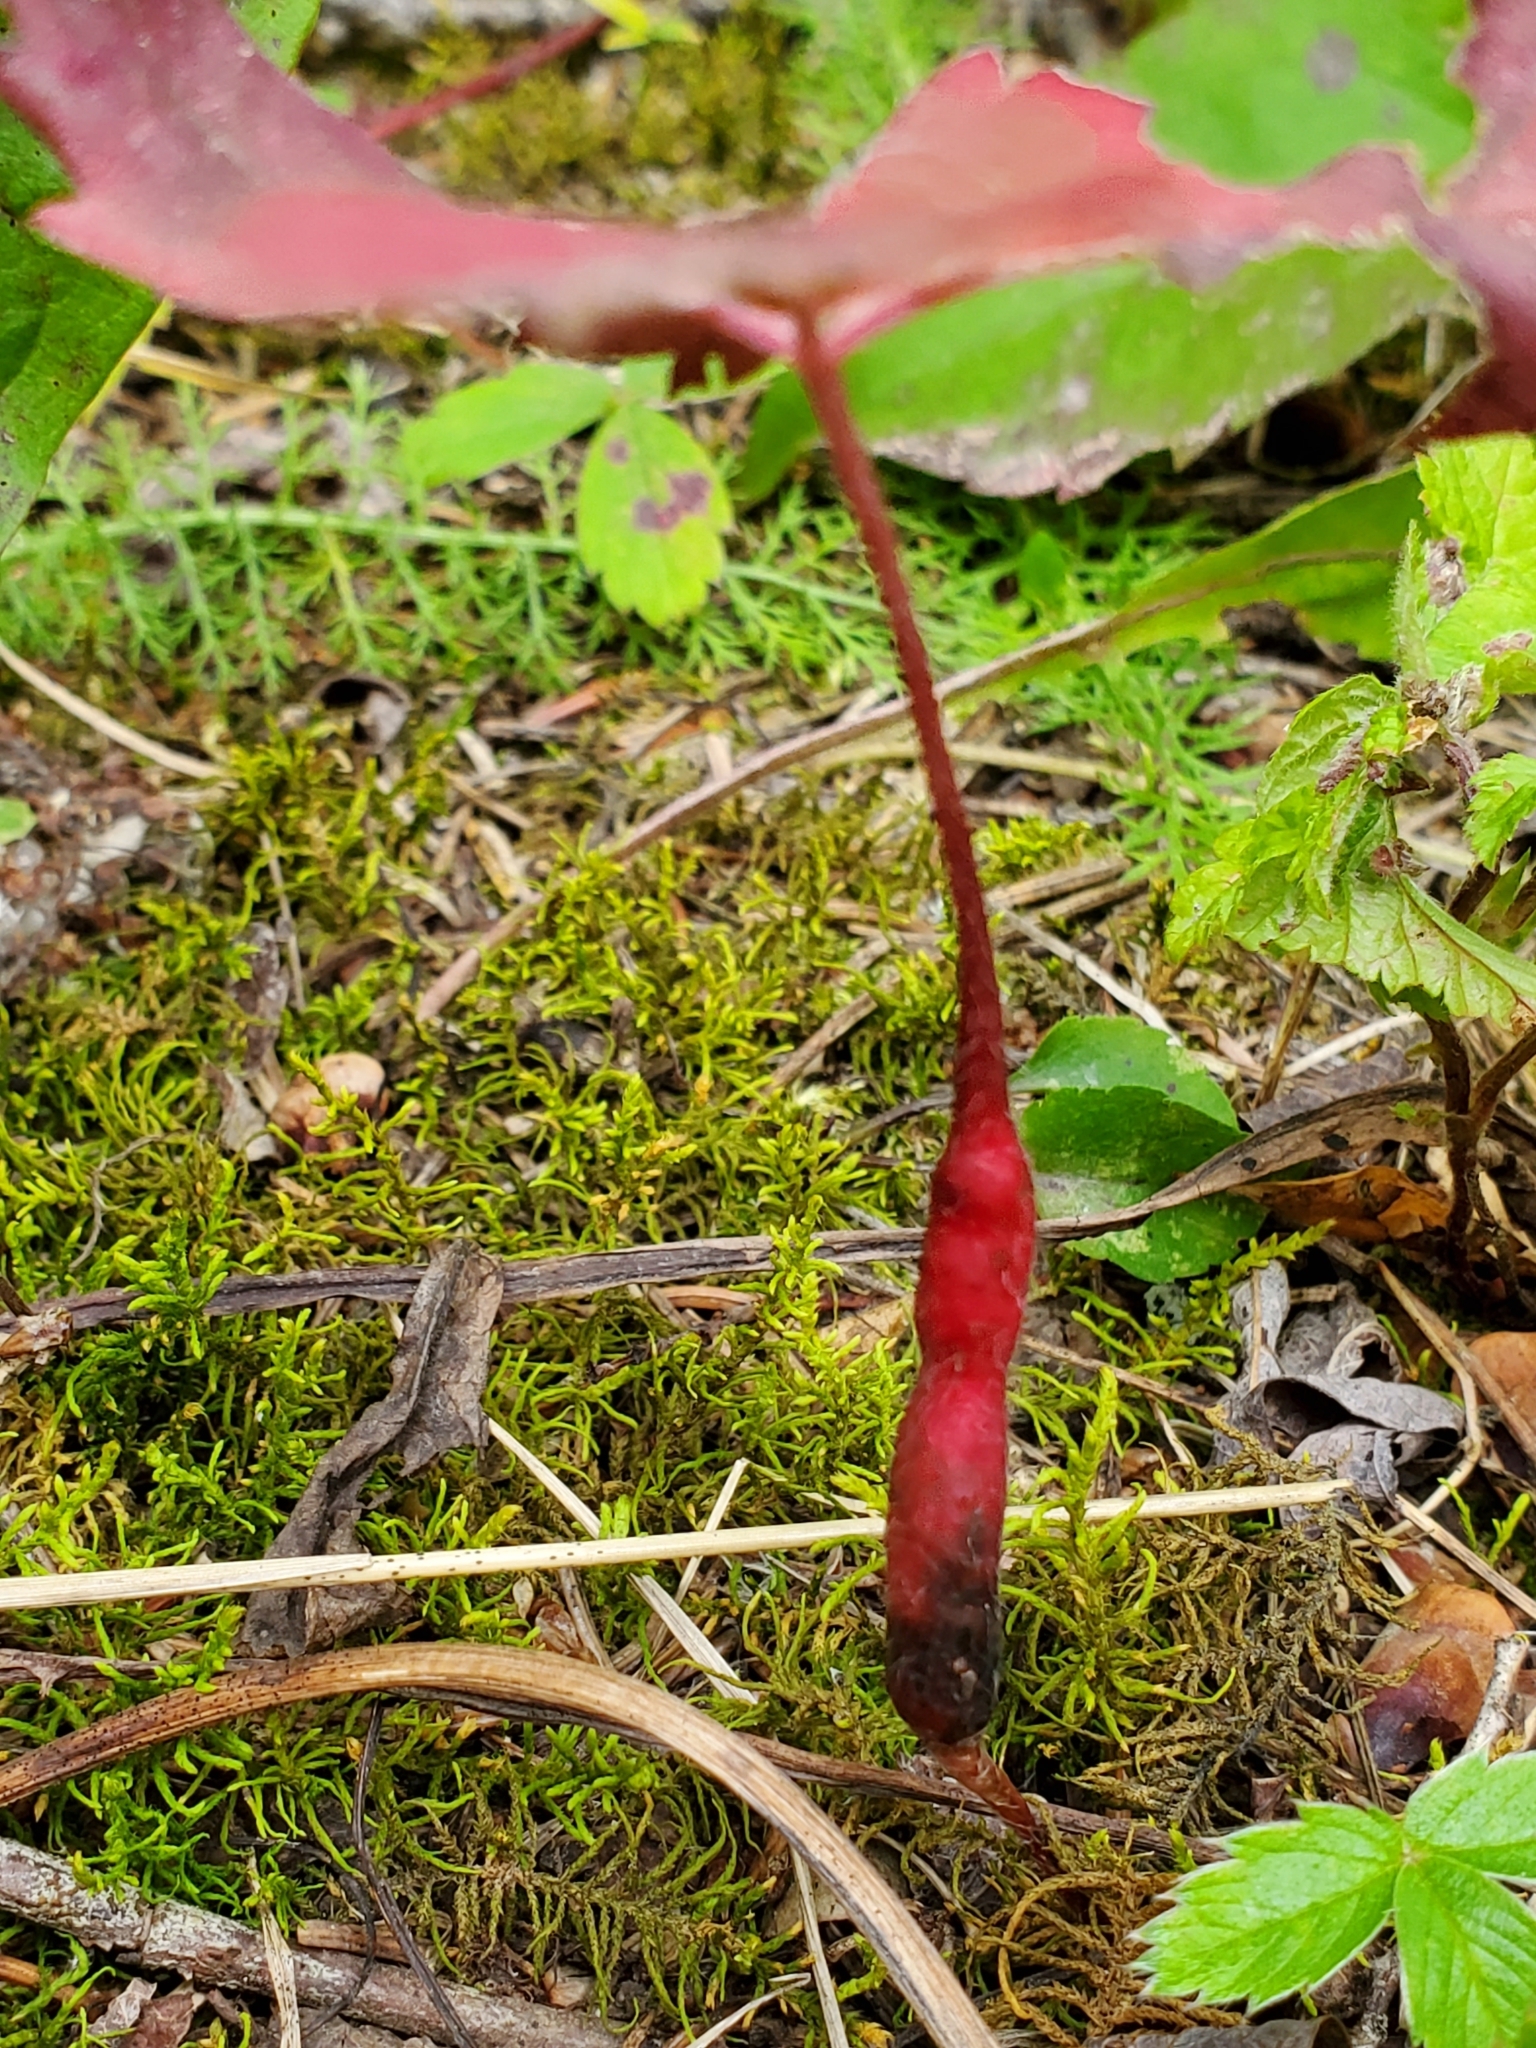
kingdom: Animalia
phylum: Arthropoda
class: Insecta
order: Hymenoptera
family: Cynipidae
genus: Diastrophus
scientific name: Diastrophus
